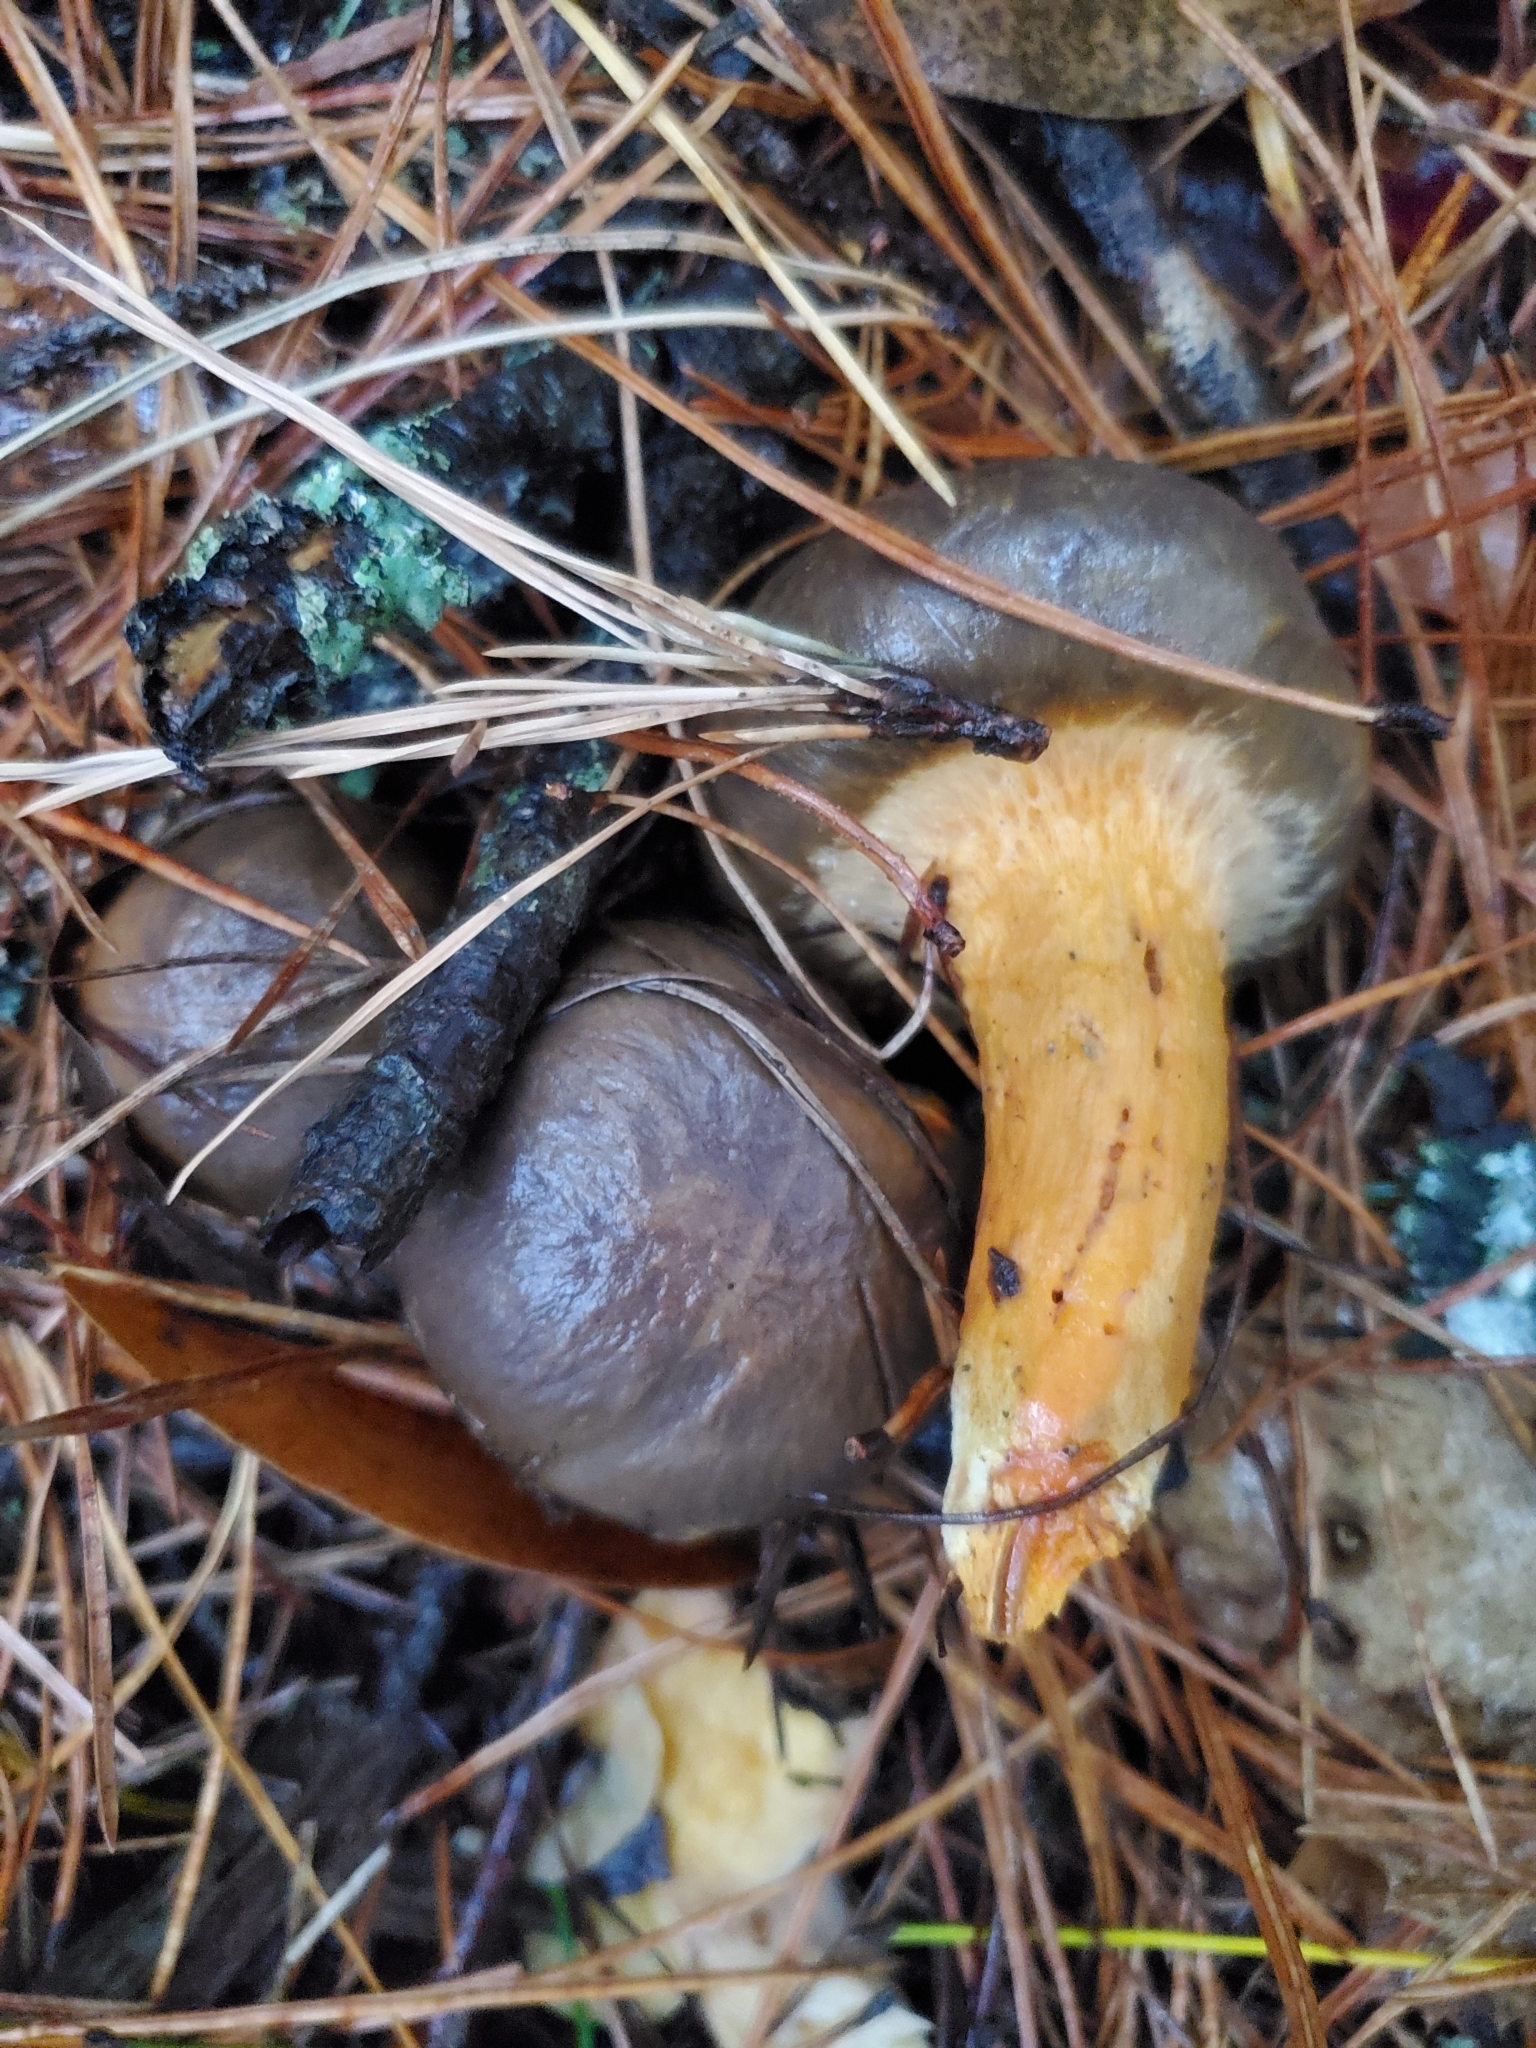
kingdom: Fungi
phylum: Basidiomycota
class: Agaricomycetes
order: Boletales
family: Gomphidiaceae
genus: Chroogomphus
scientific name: Chroogomphus vinicolor
